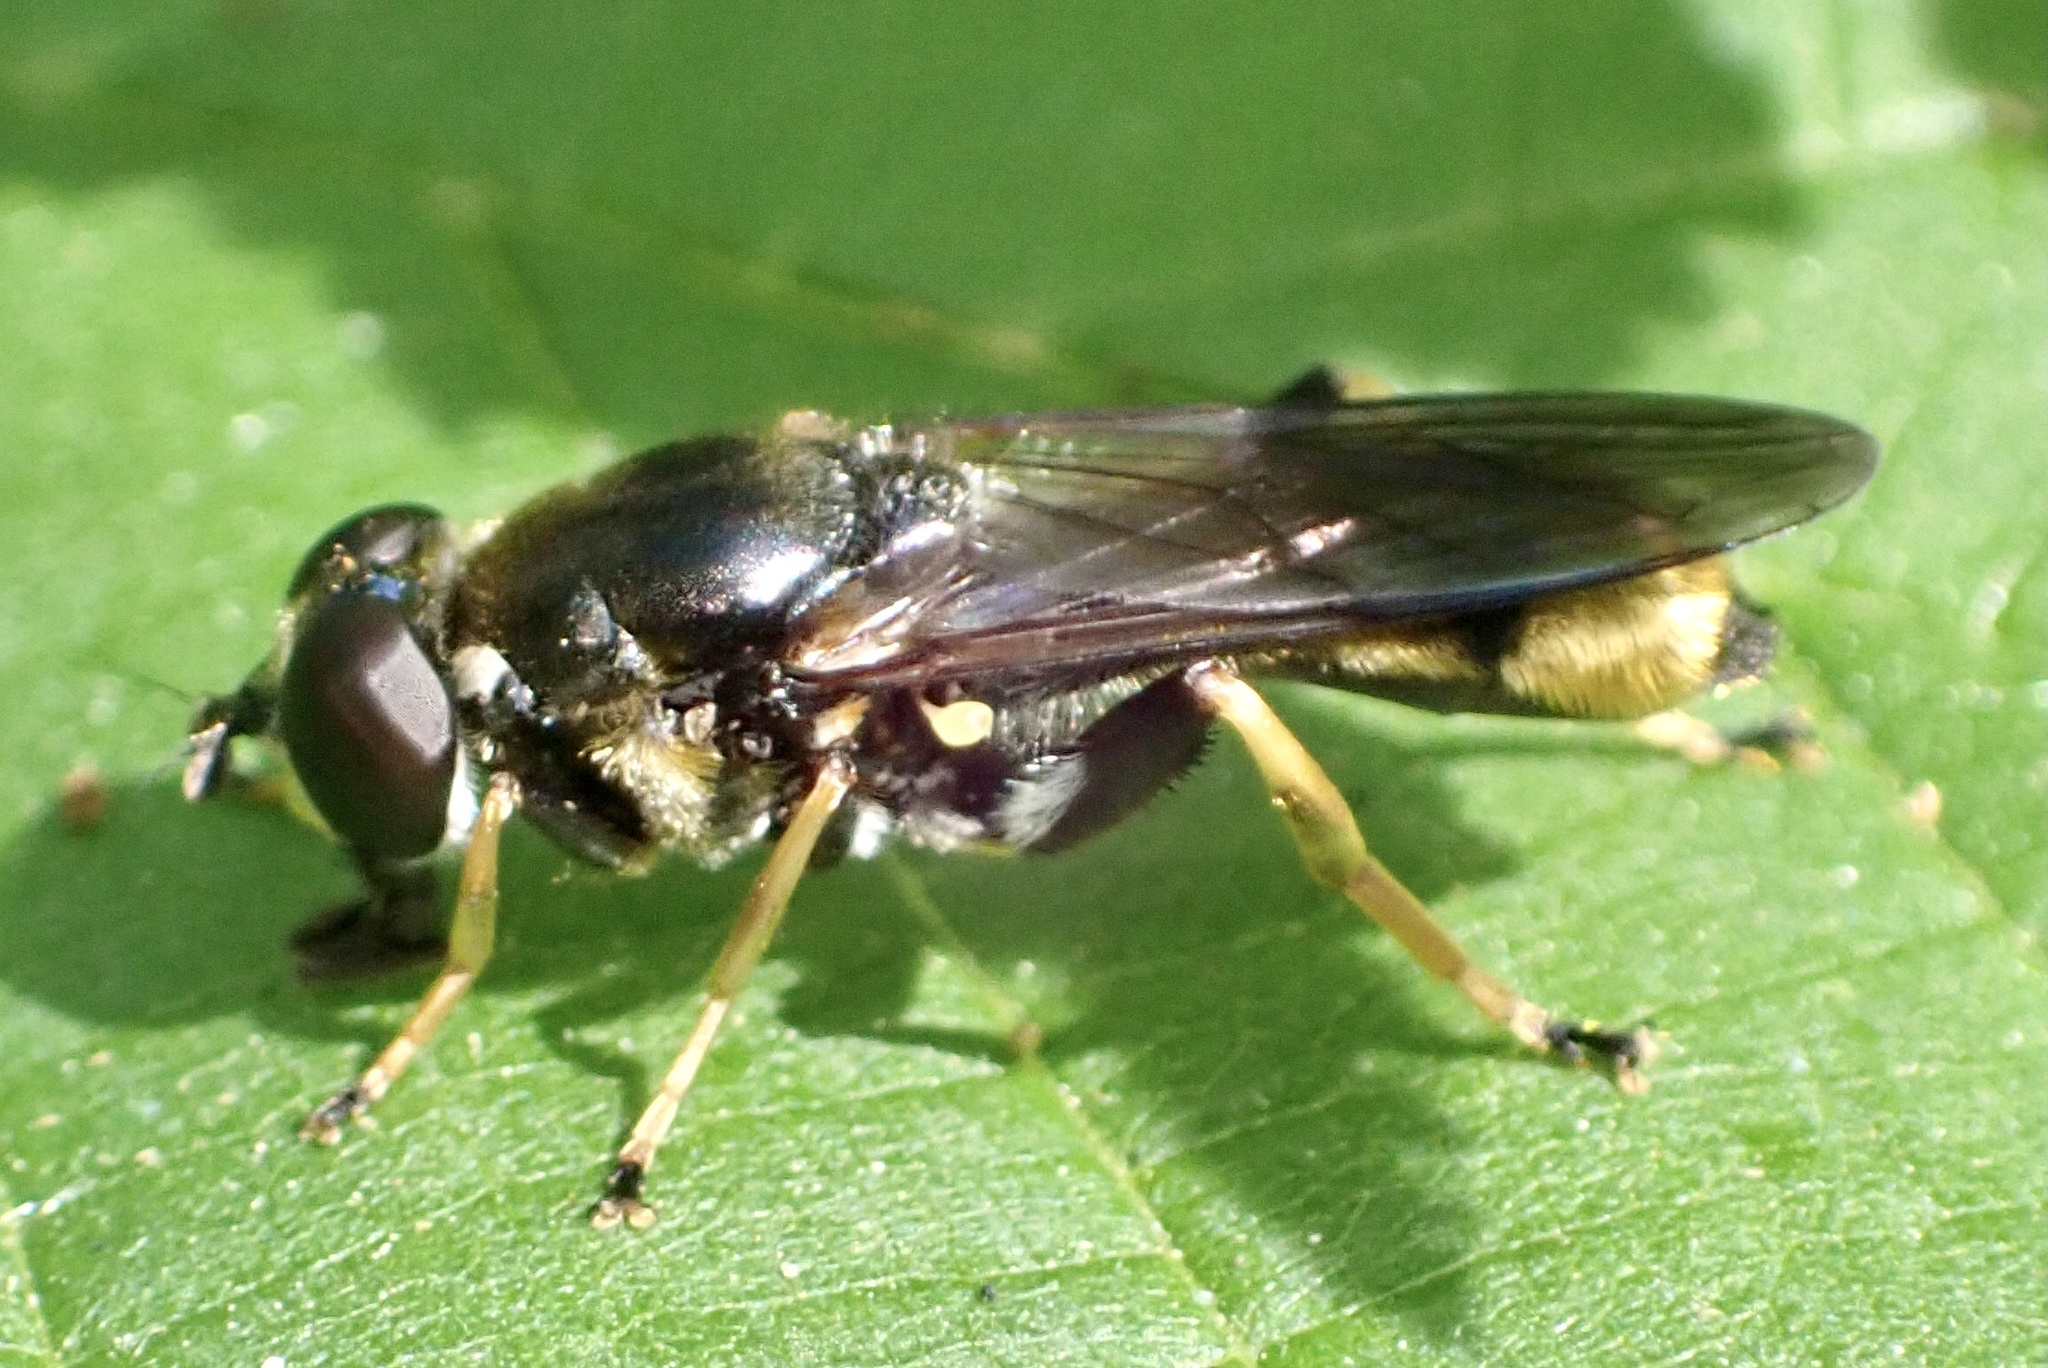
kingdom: Animalia
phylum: Arthropoda
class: Insecta
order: Diptera
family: Syrphidae
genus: Xylota
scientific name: Xylota sylvarum
